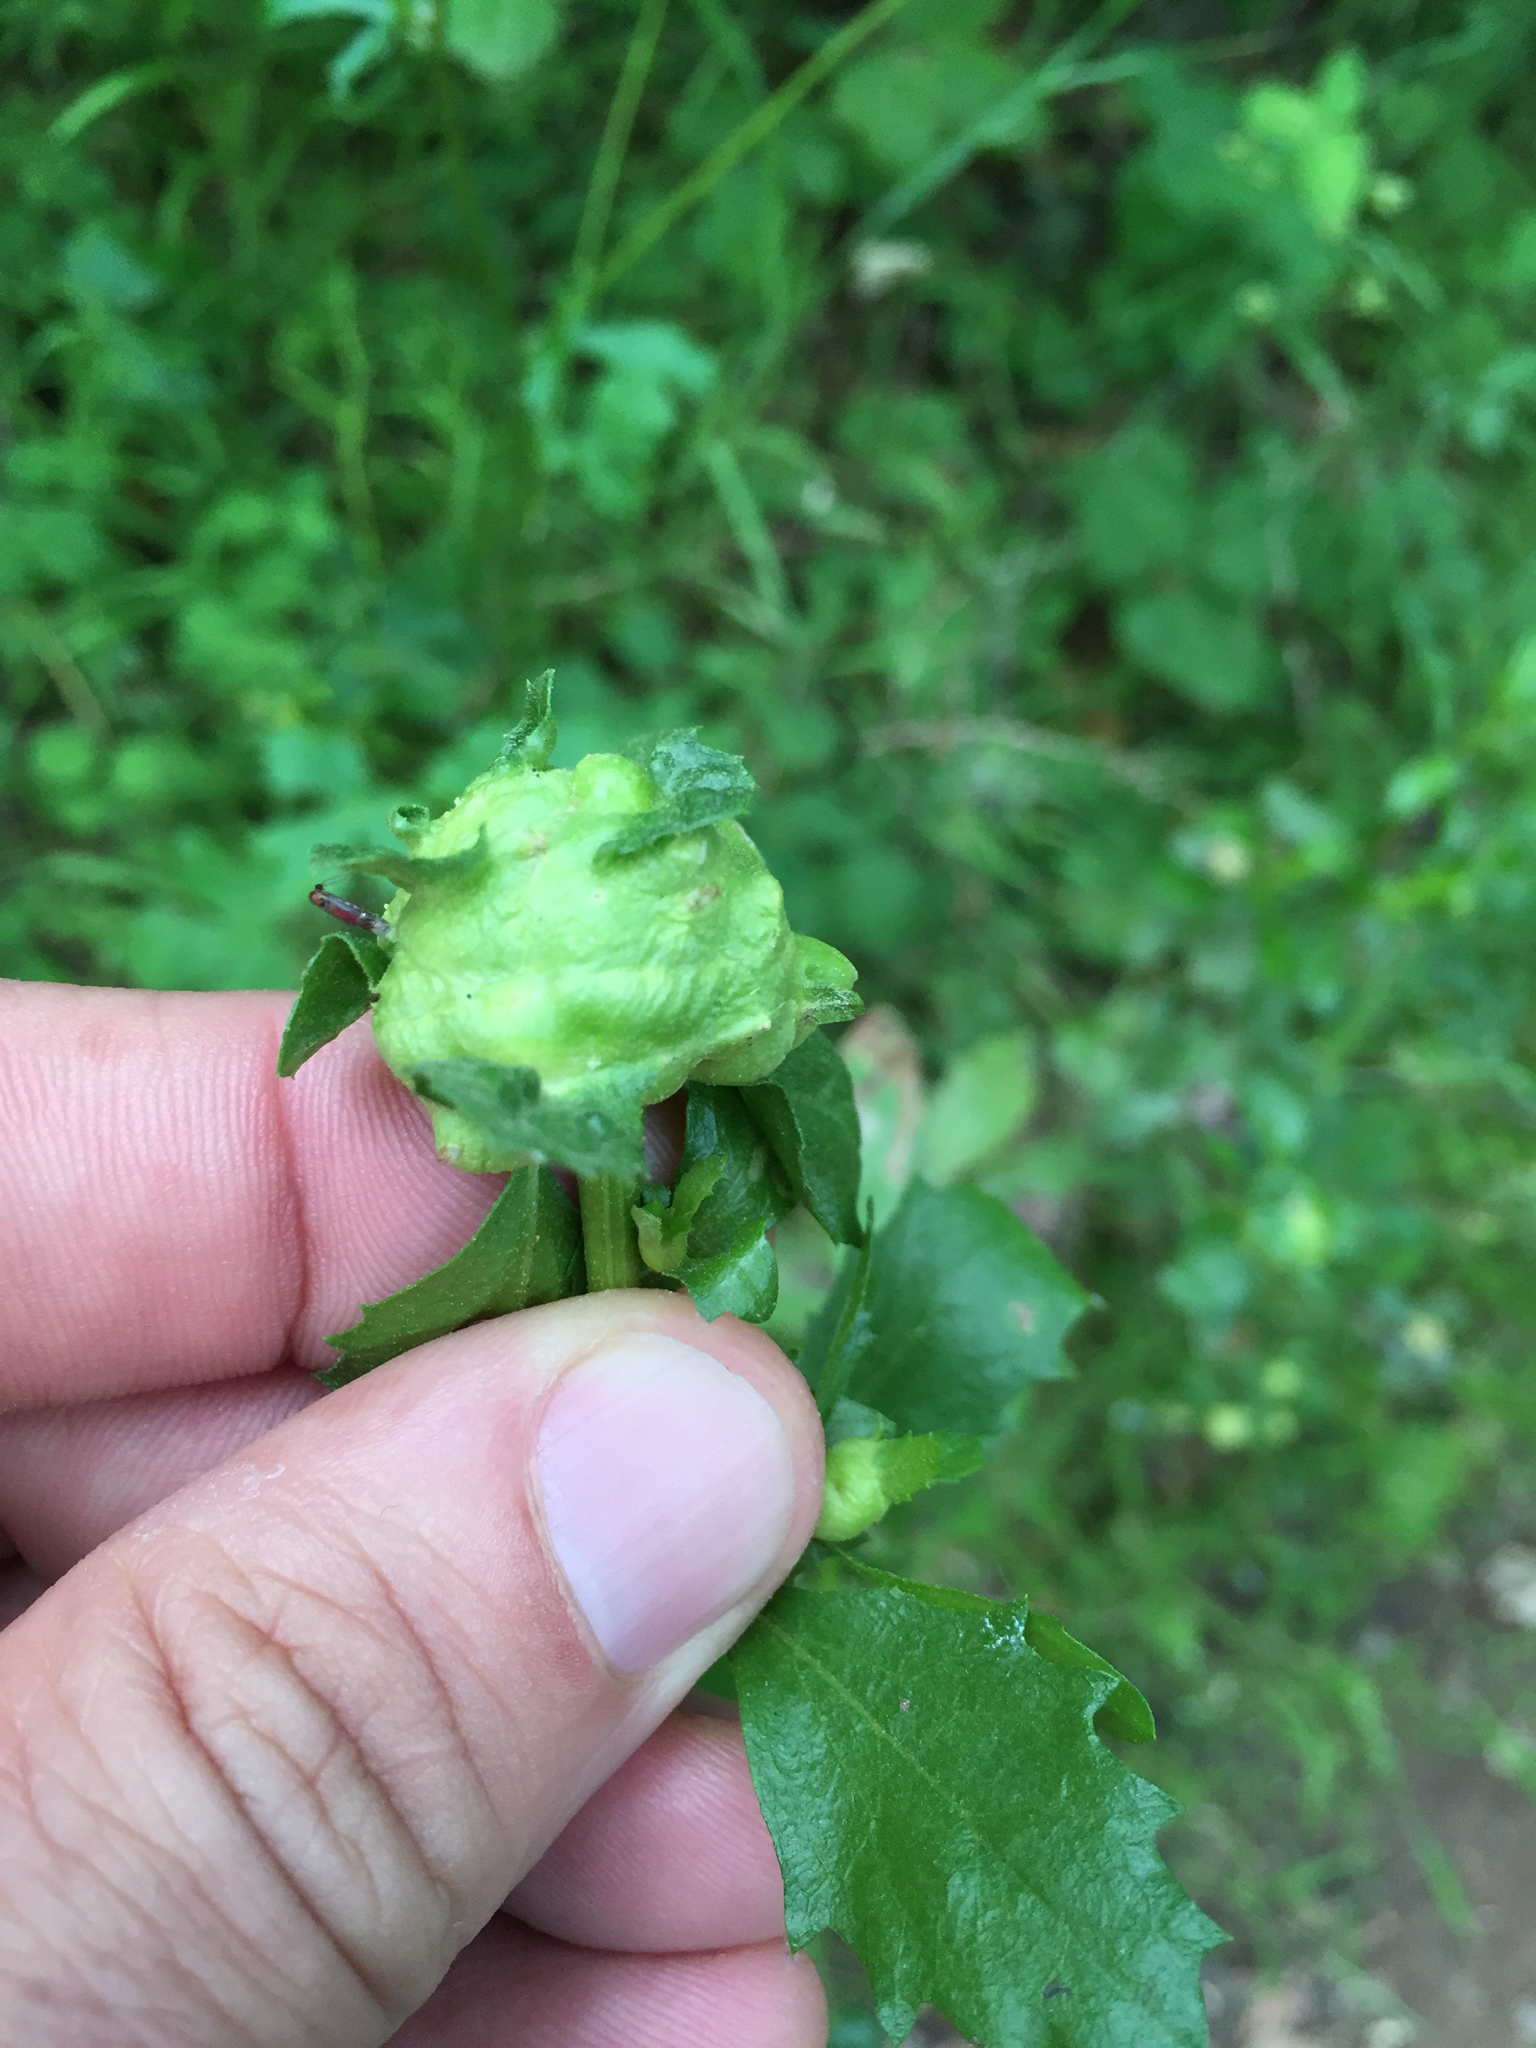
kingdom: Animalia
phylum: Arthropoda
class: Insecta
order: Diptera
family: Cecidomyiidae
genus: Rhopalomyia
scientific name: Rhopalomyia californica
